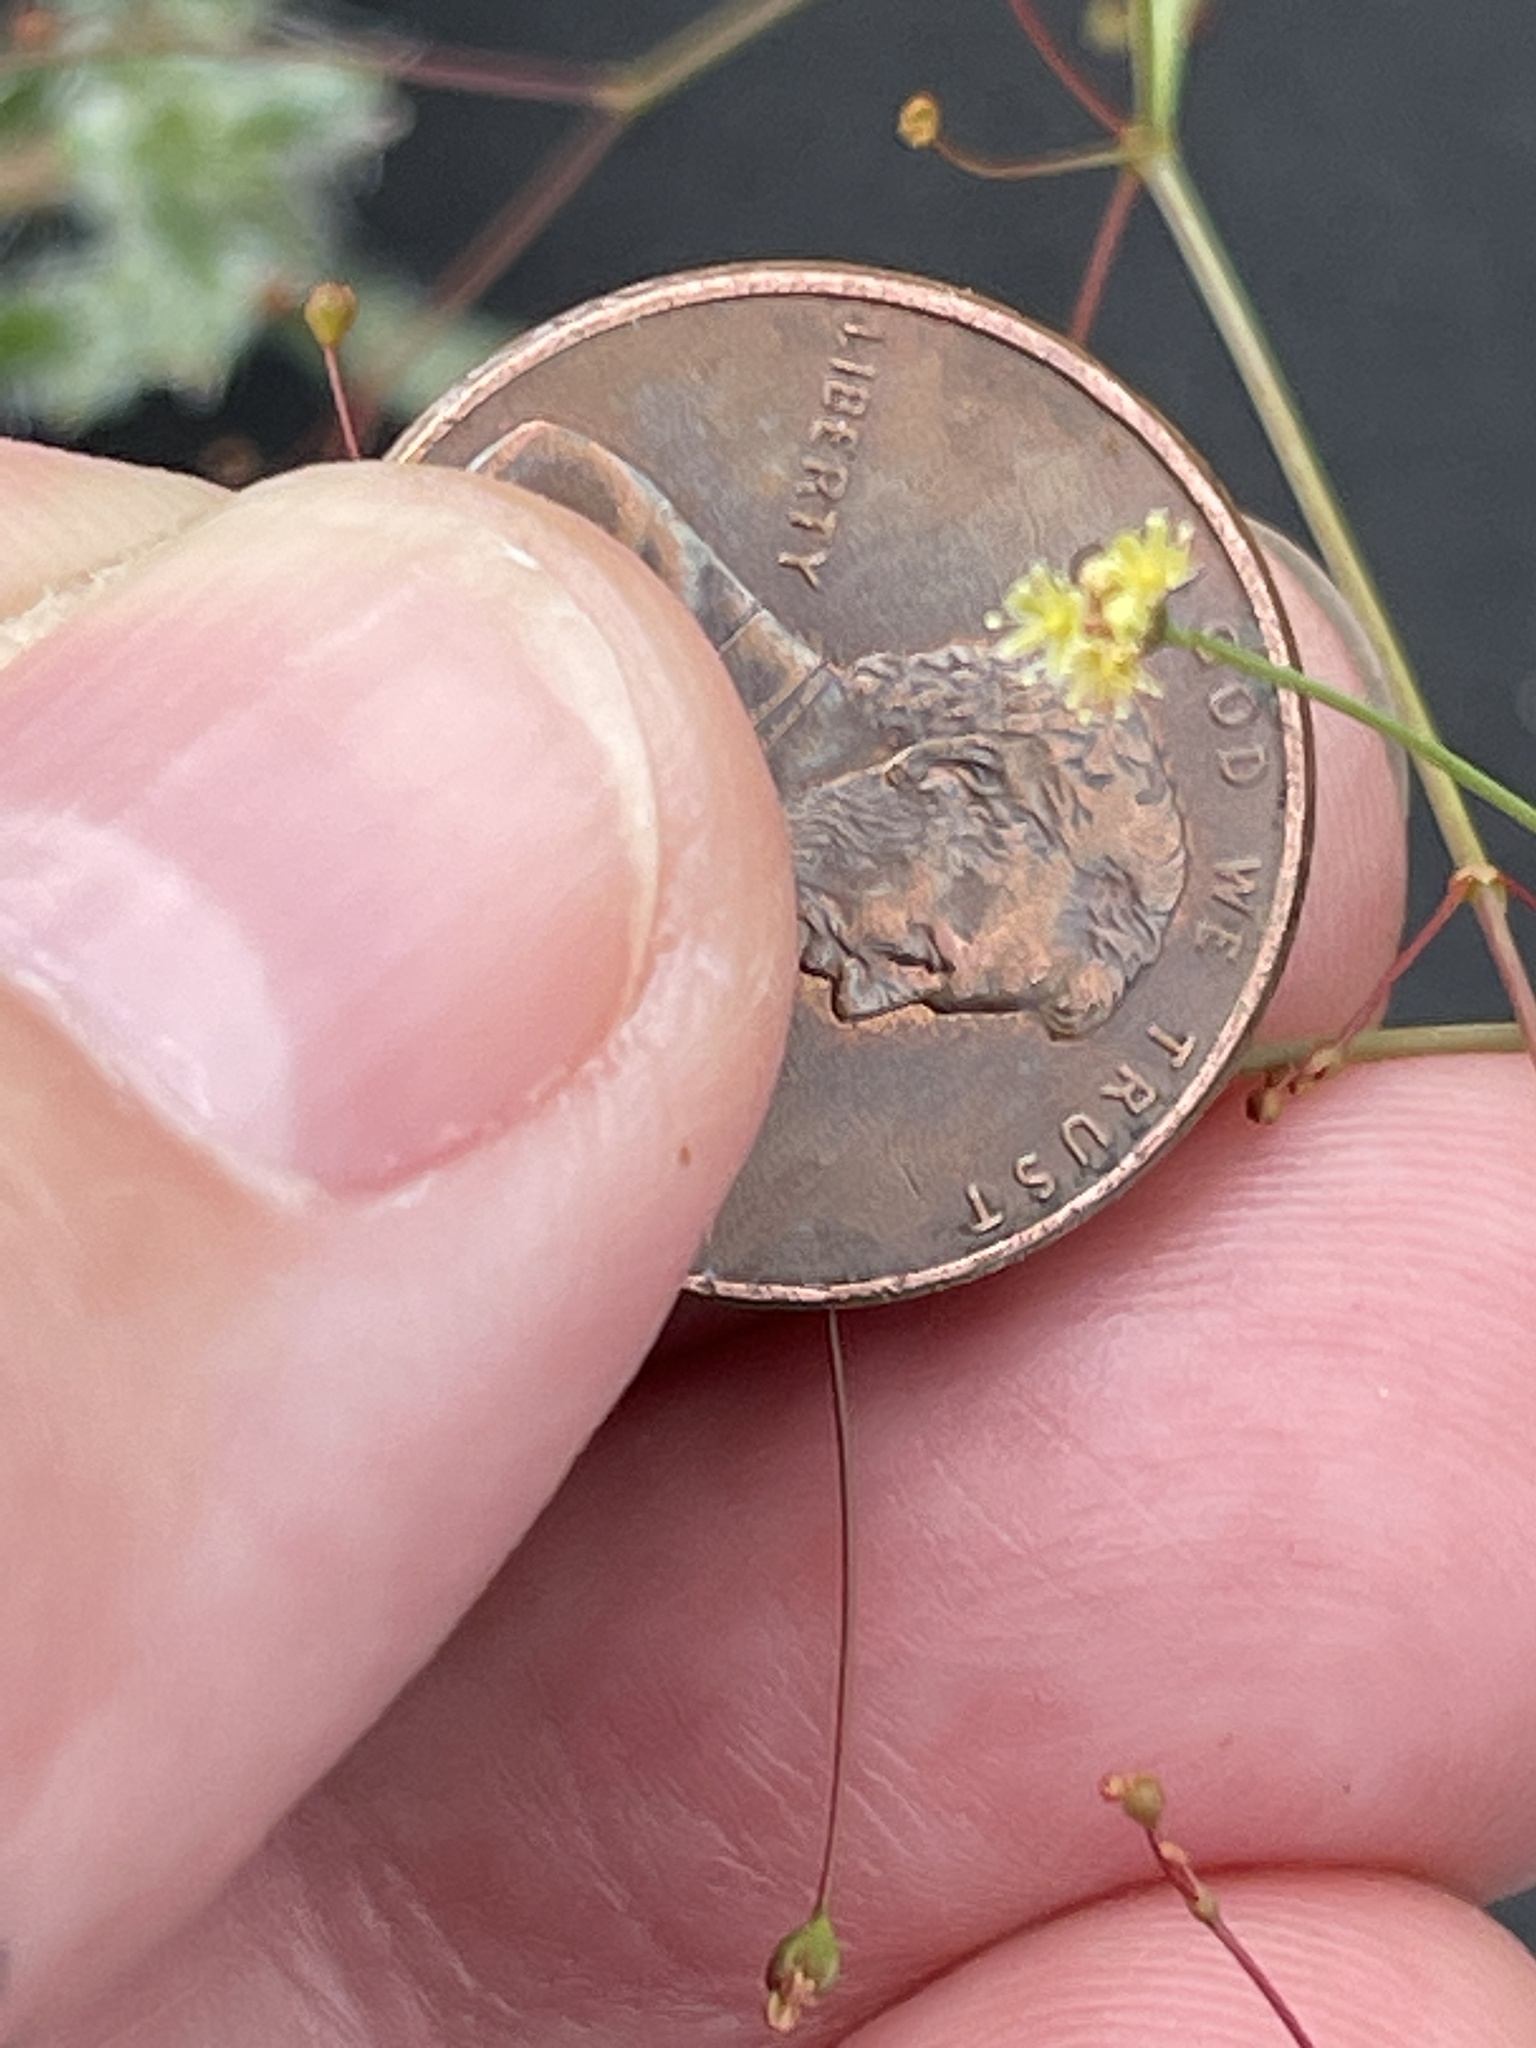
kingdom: Plantae
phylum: Tracheophyta
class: Magnoliopsida
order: Caryophyllales
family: Polygonaceae
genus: Eriogonum
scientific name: Eriogonum thomasii
